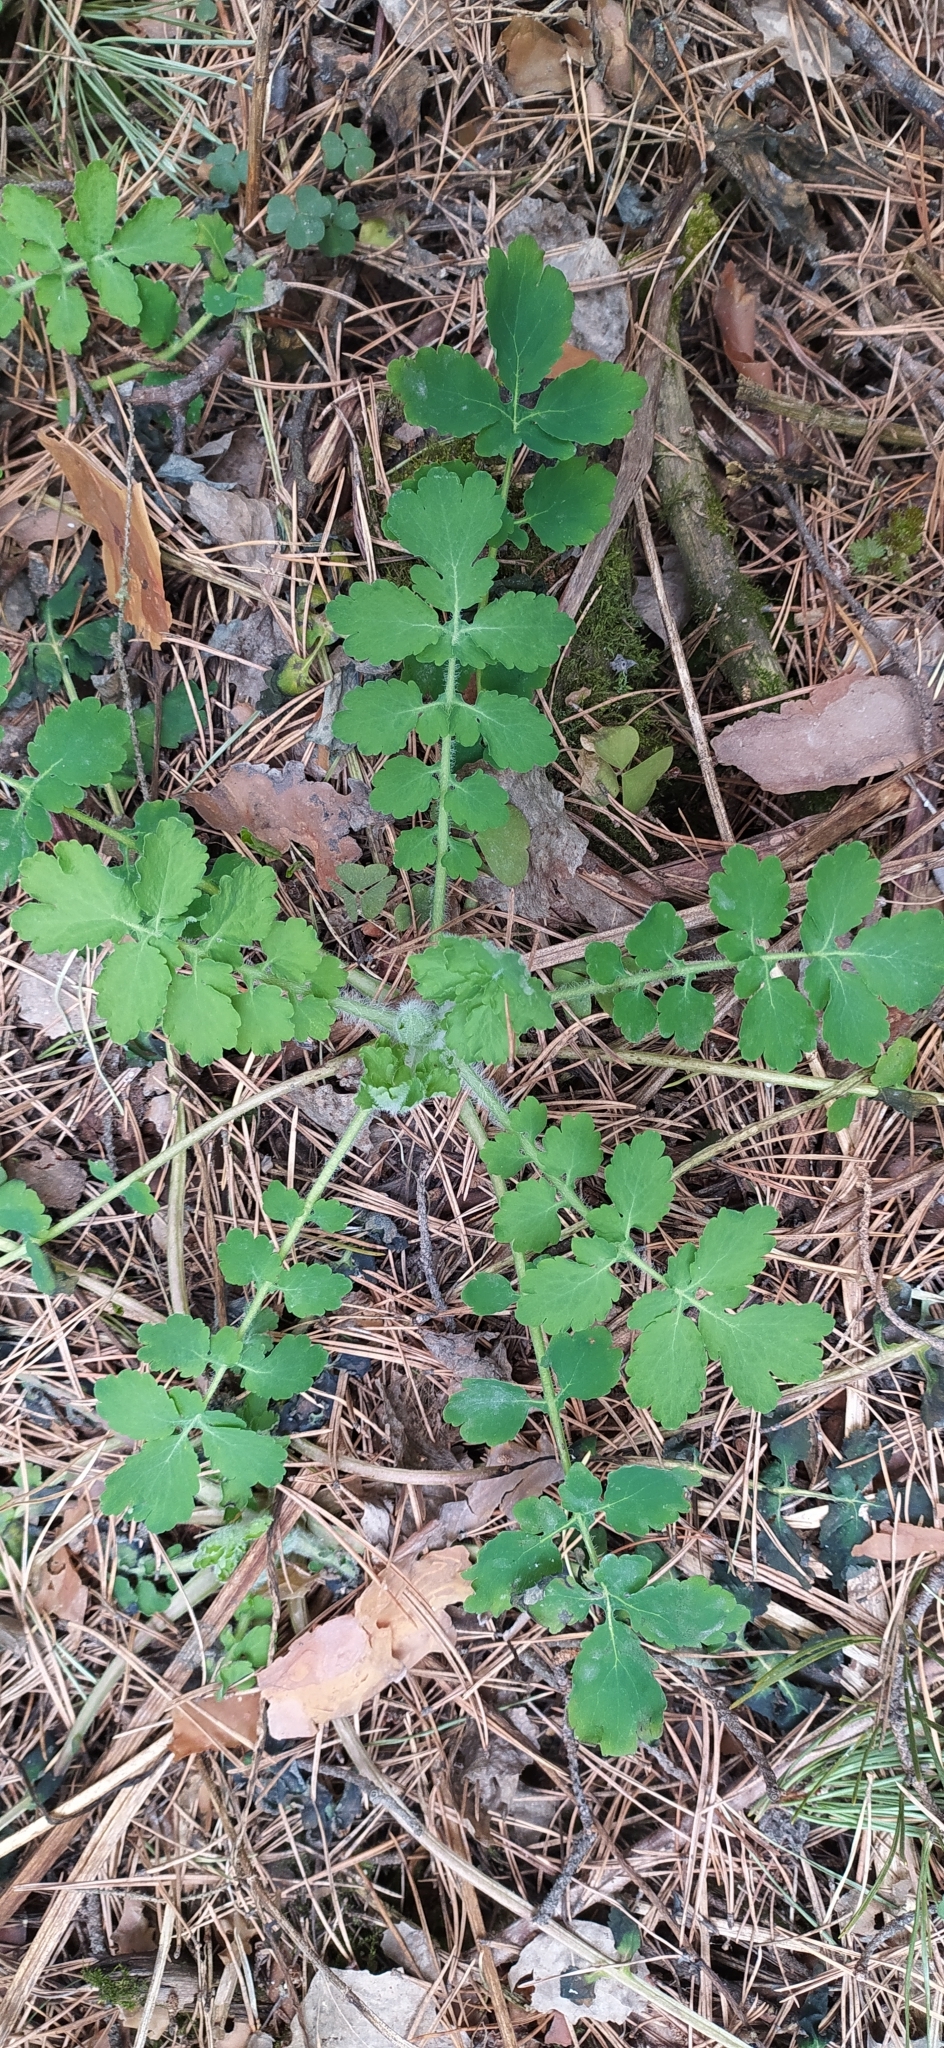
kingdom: Plantae
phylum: Tracheophyta
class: Magnoliopsida
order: Ranunculales
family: Papaveraceae
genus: Chelidonium
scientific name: Chelidonium majus
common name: Greater celandine
